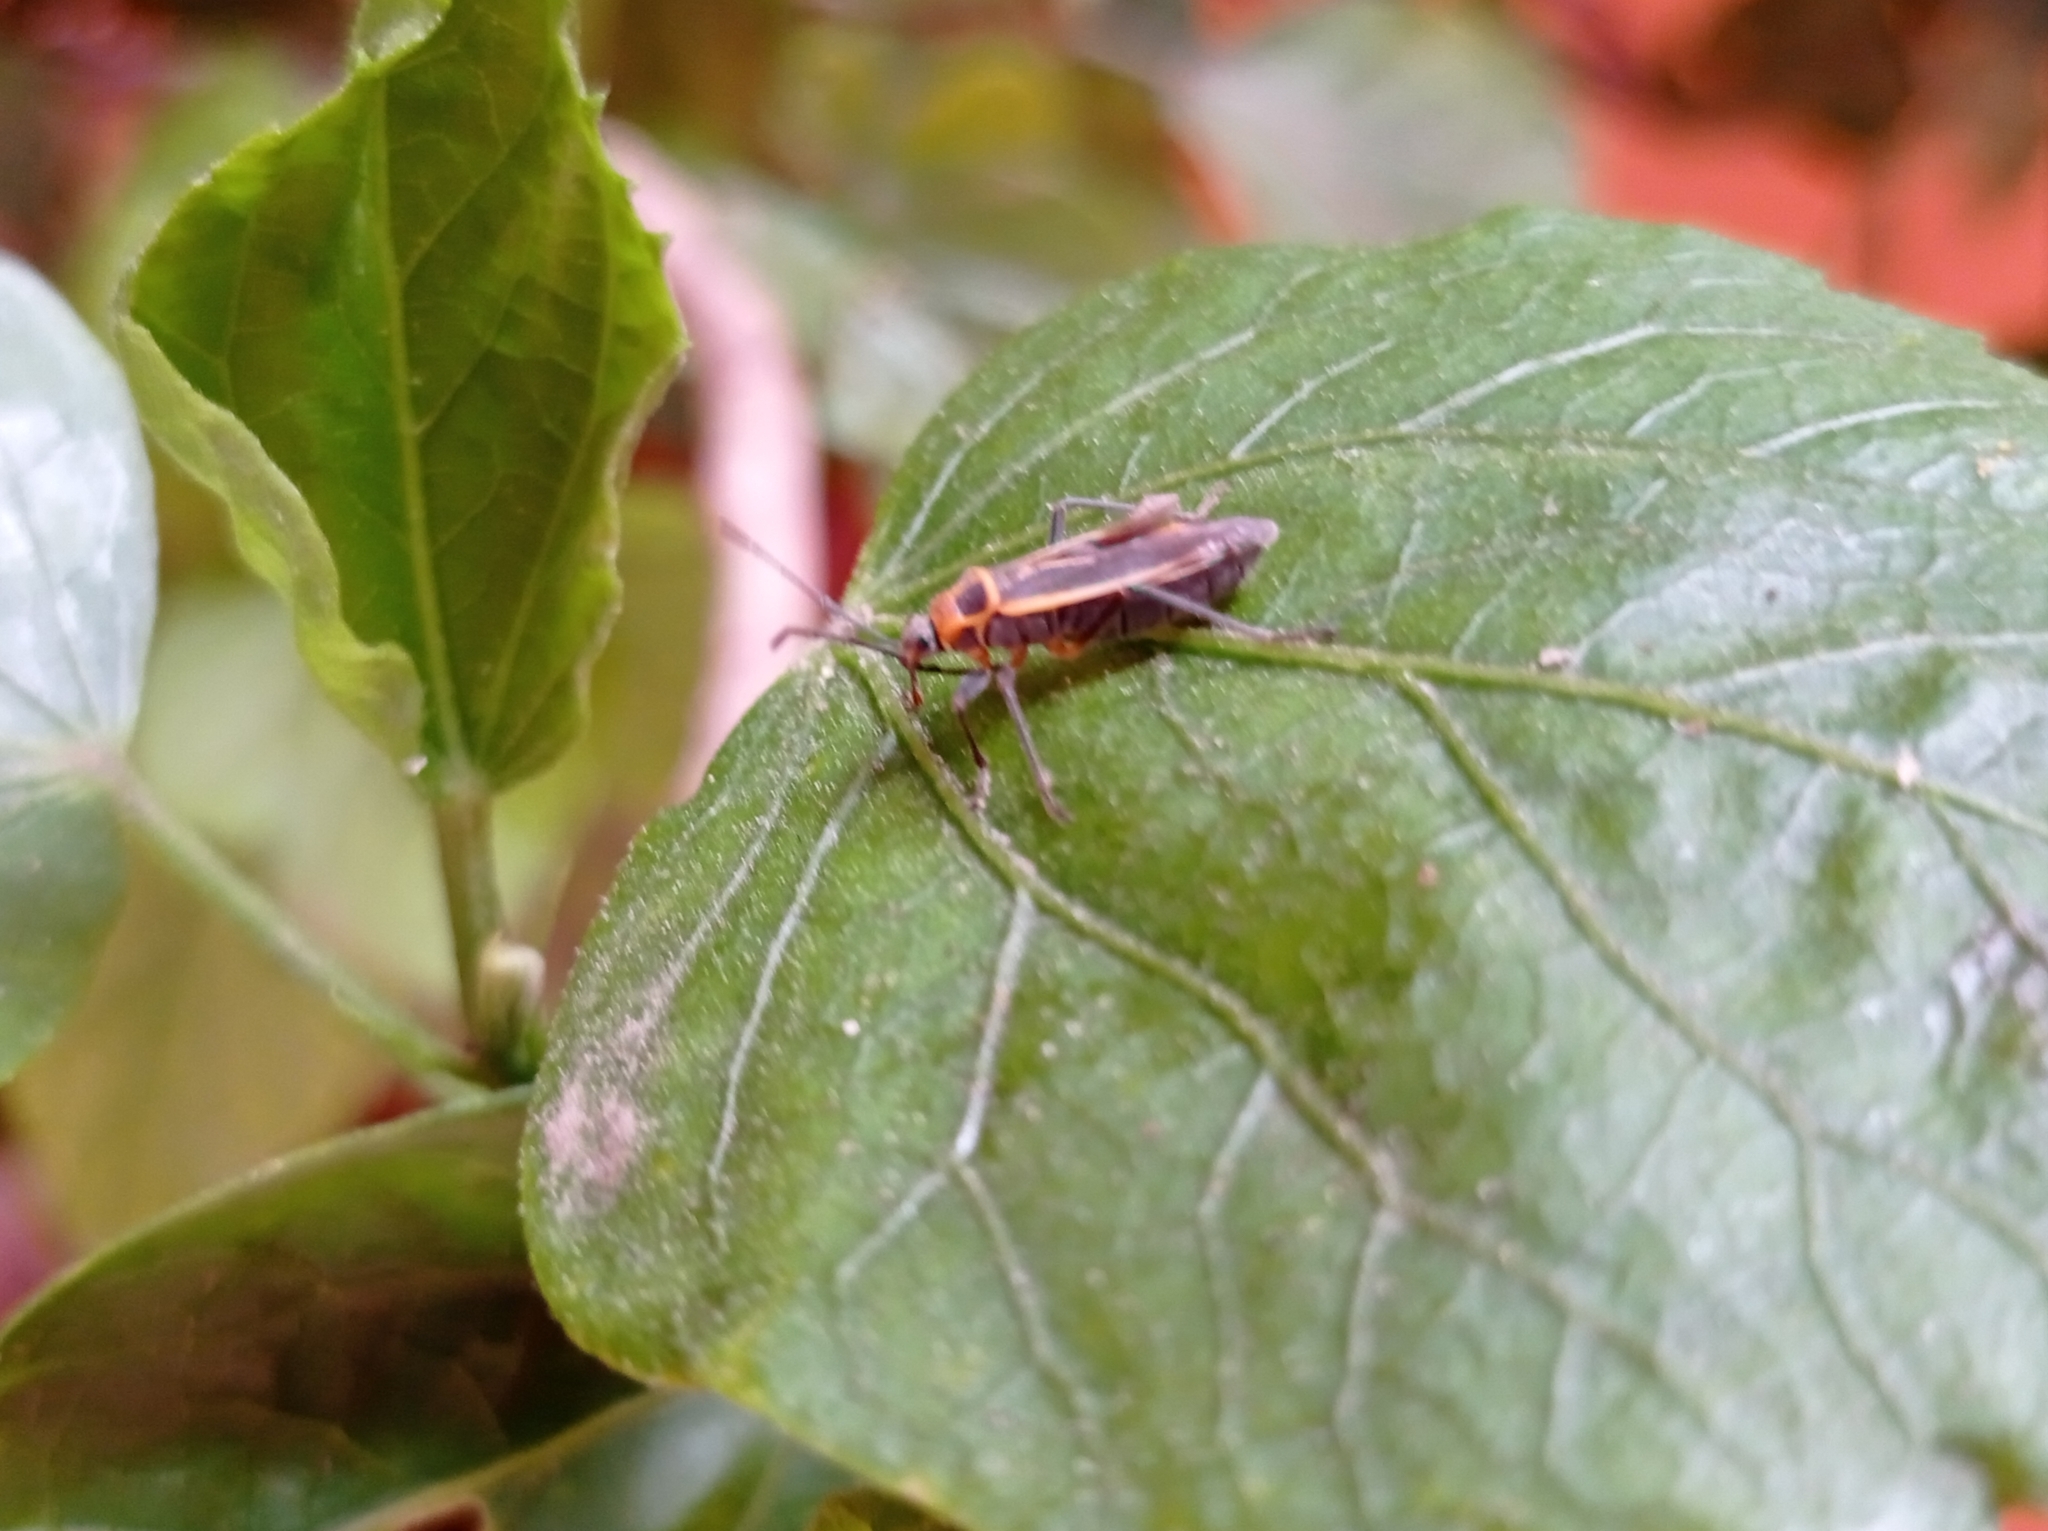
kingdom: Animalia
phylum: Arthropoda
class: Insecta
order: Hemiptera
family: Largidae
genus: Stenomacra
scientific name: Stenomacra marginella
